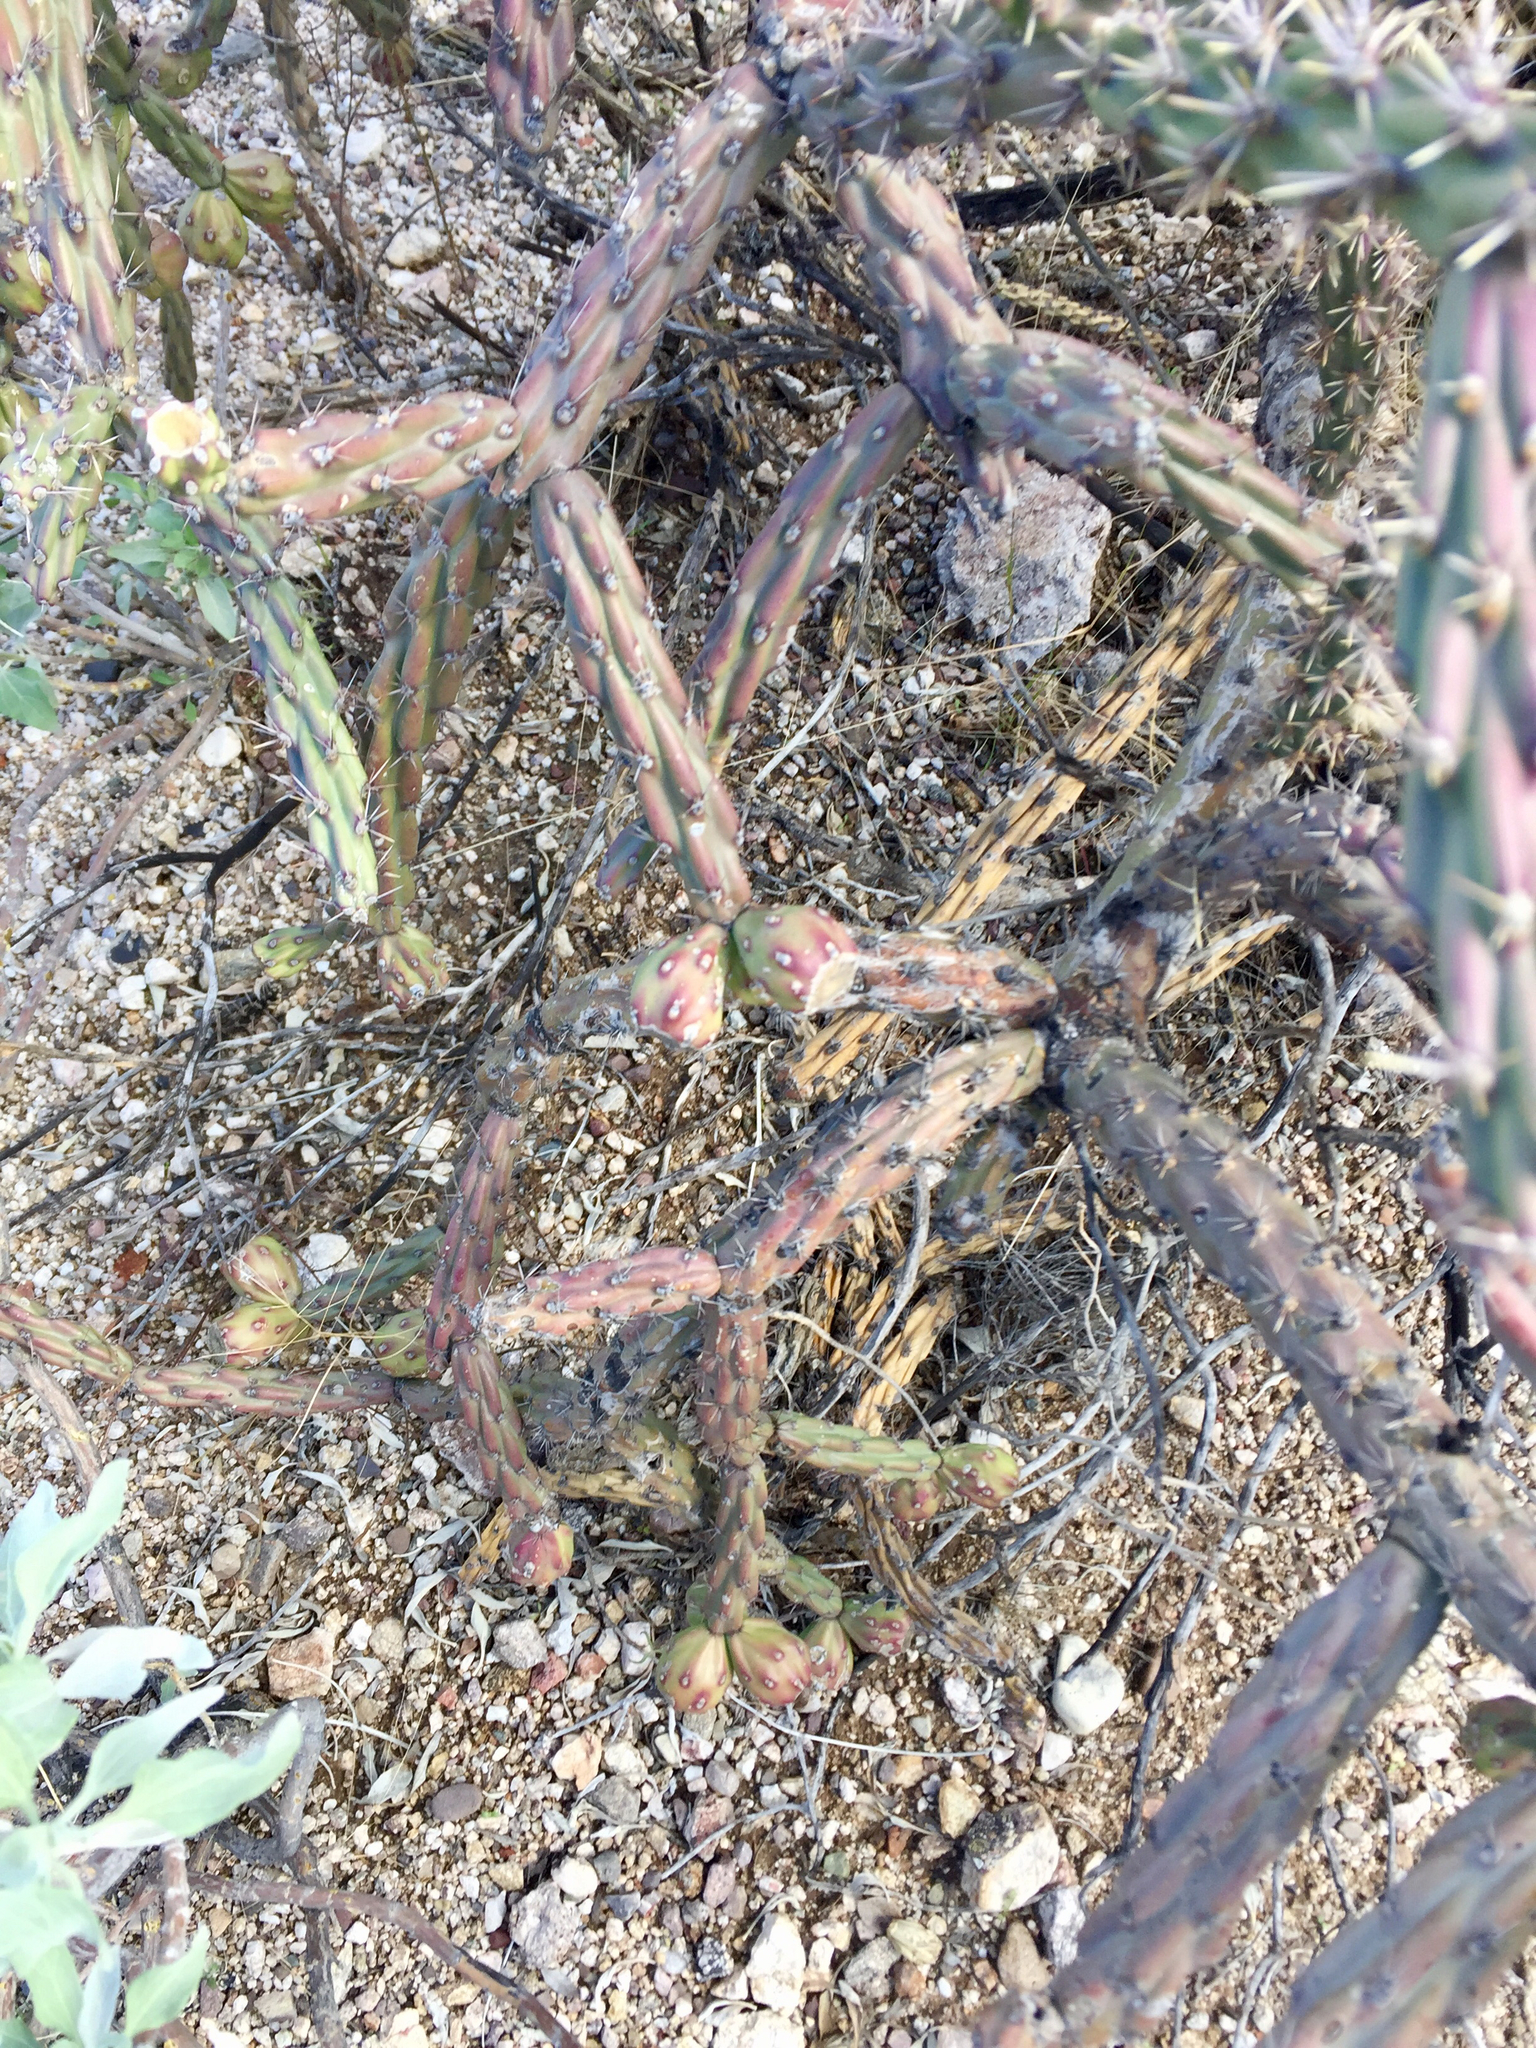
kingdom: Plantae
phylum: Tracheophyta
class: Magnoliopsida
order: Caryophyllales
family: Cactaceae
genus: Cylindropuntia
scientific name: Cylindropuntia thurberi
